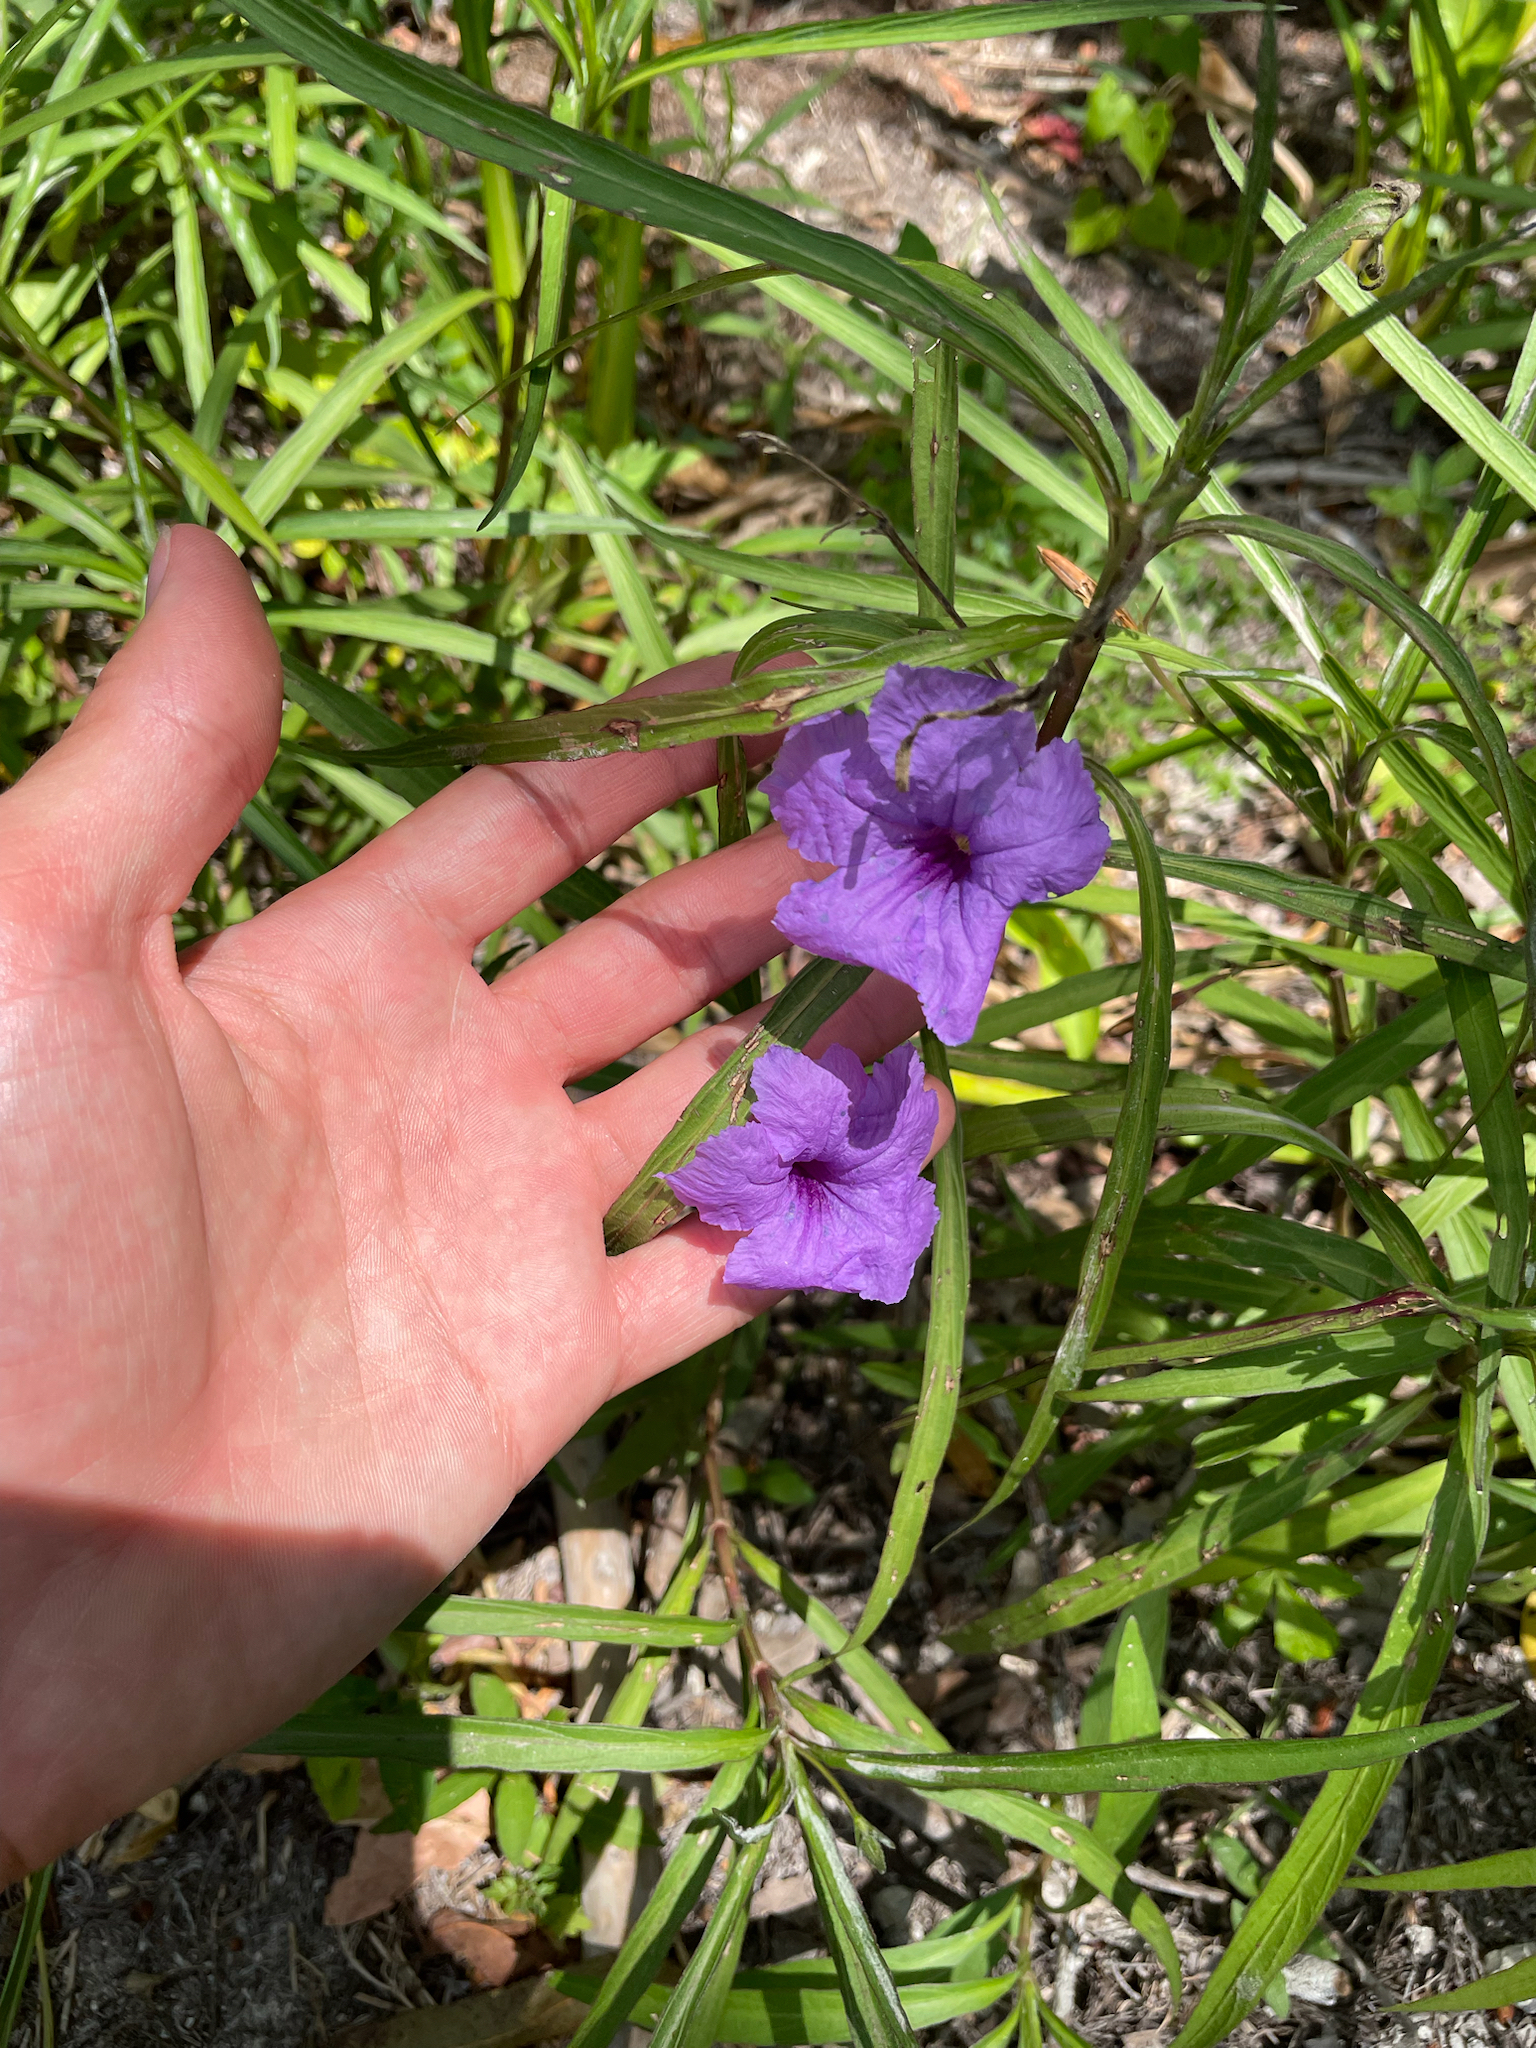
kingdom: Plantae
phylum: Tracheophyta
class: Magnoliopsida
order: Lamiales
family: Acanthaceae
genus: Ruellia
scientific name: Ruellia simplex
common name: Softseed wild petunia
